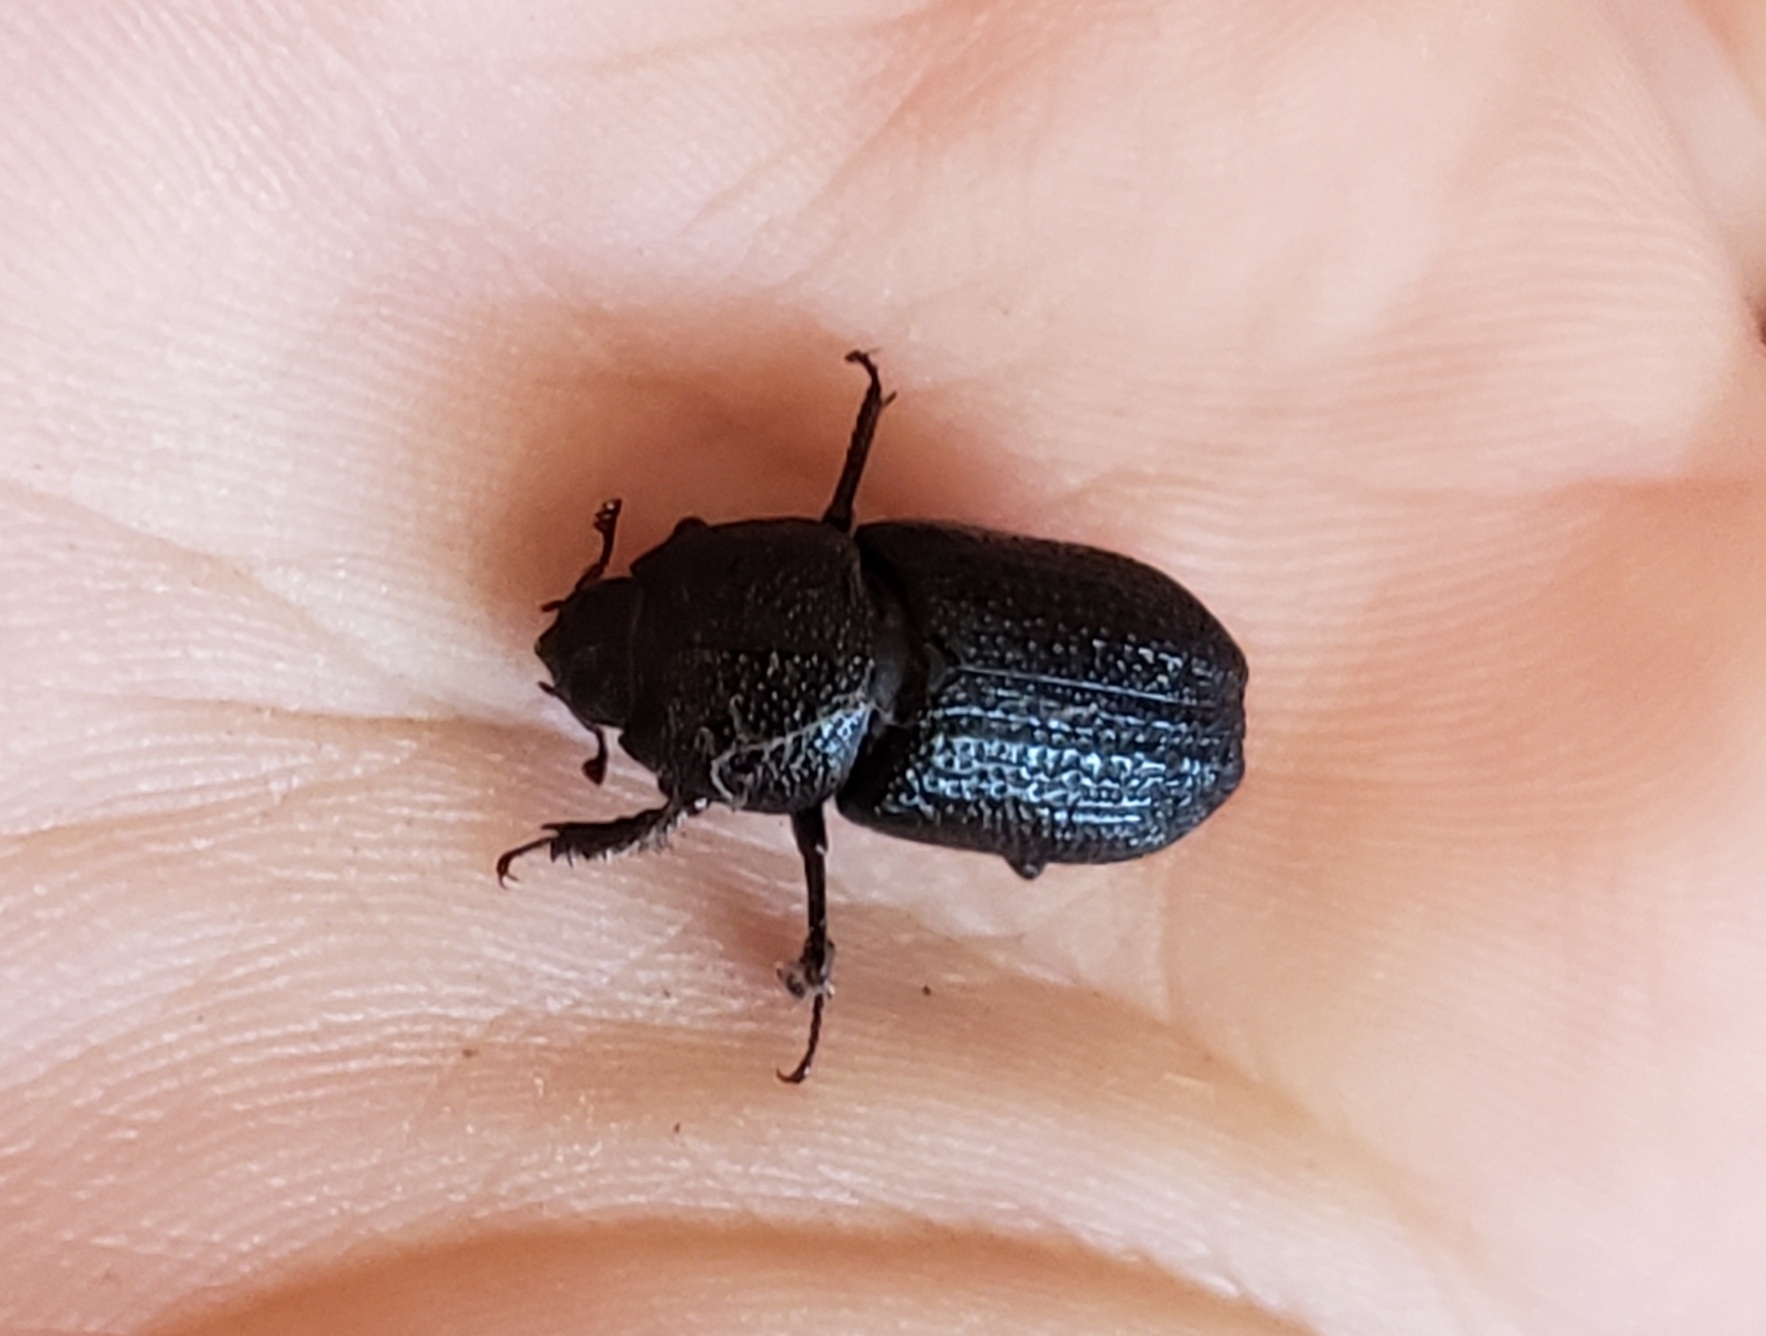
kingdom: Animalia
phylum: Arthropoda
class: Insecta
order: Coleoptera
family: Lucanidae
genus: Sinodendron
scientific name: Sinodendron rugosum
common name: Rugose stag beelte
